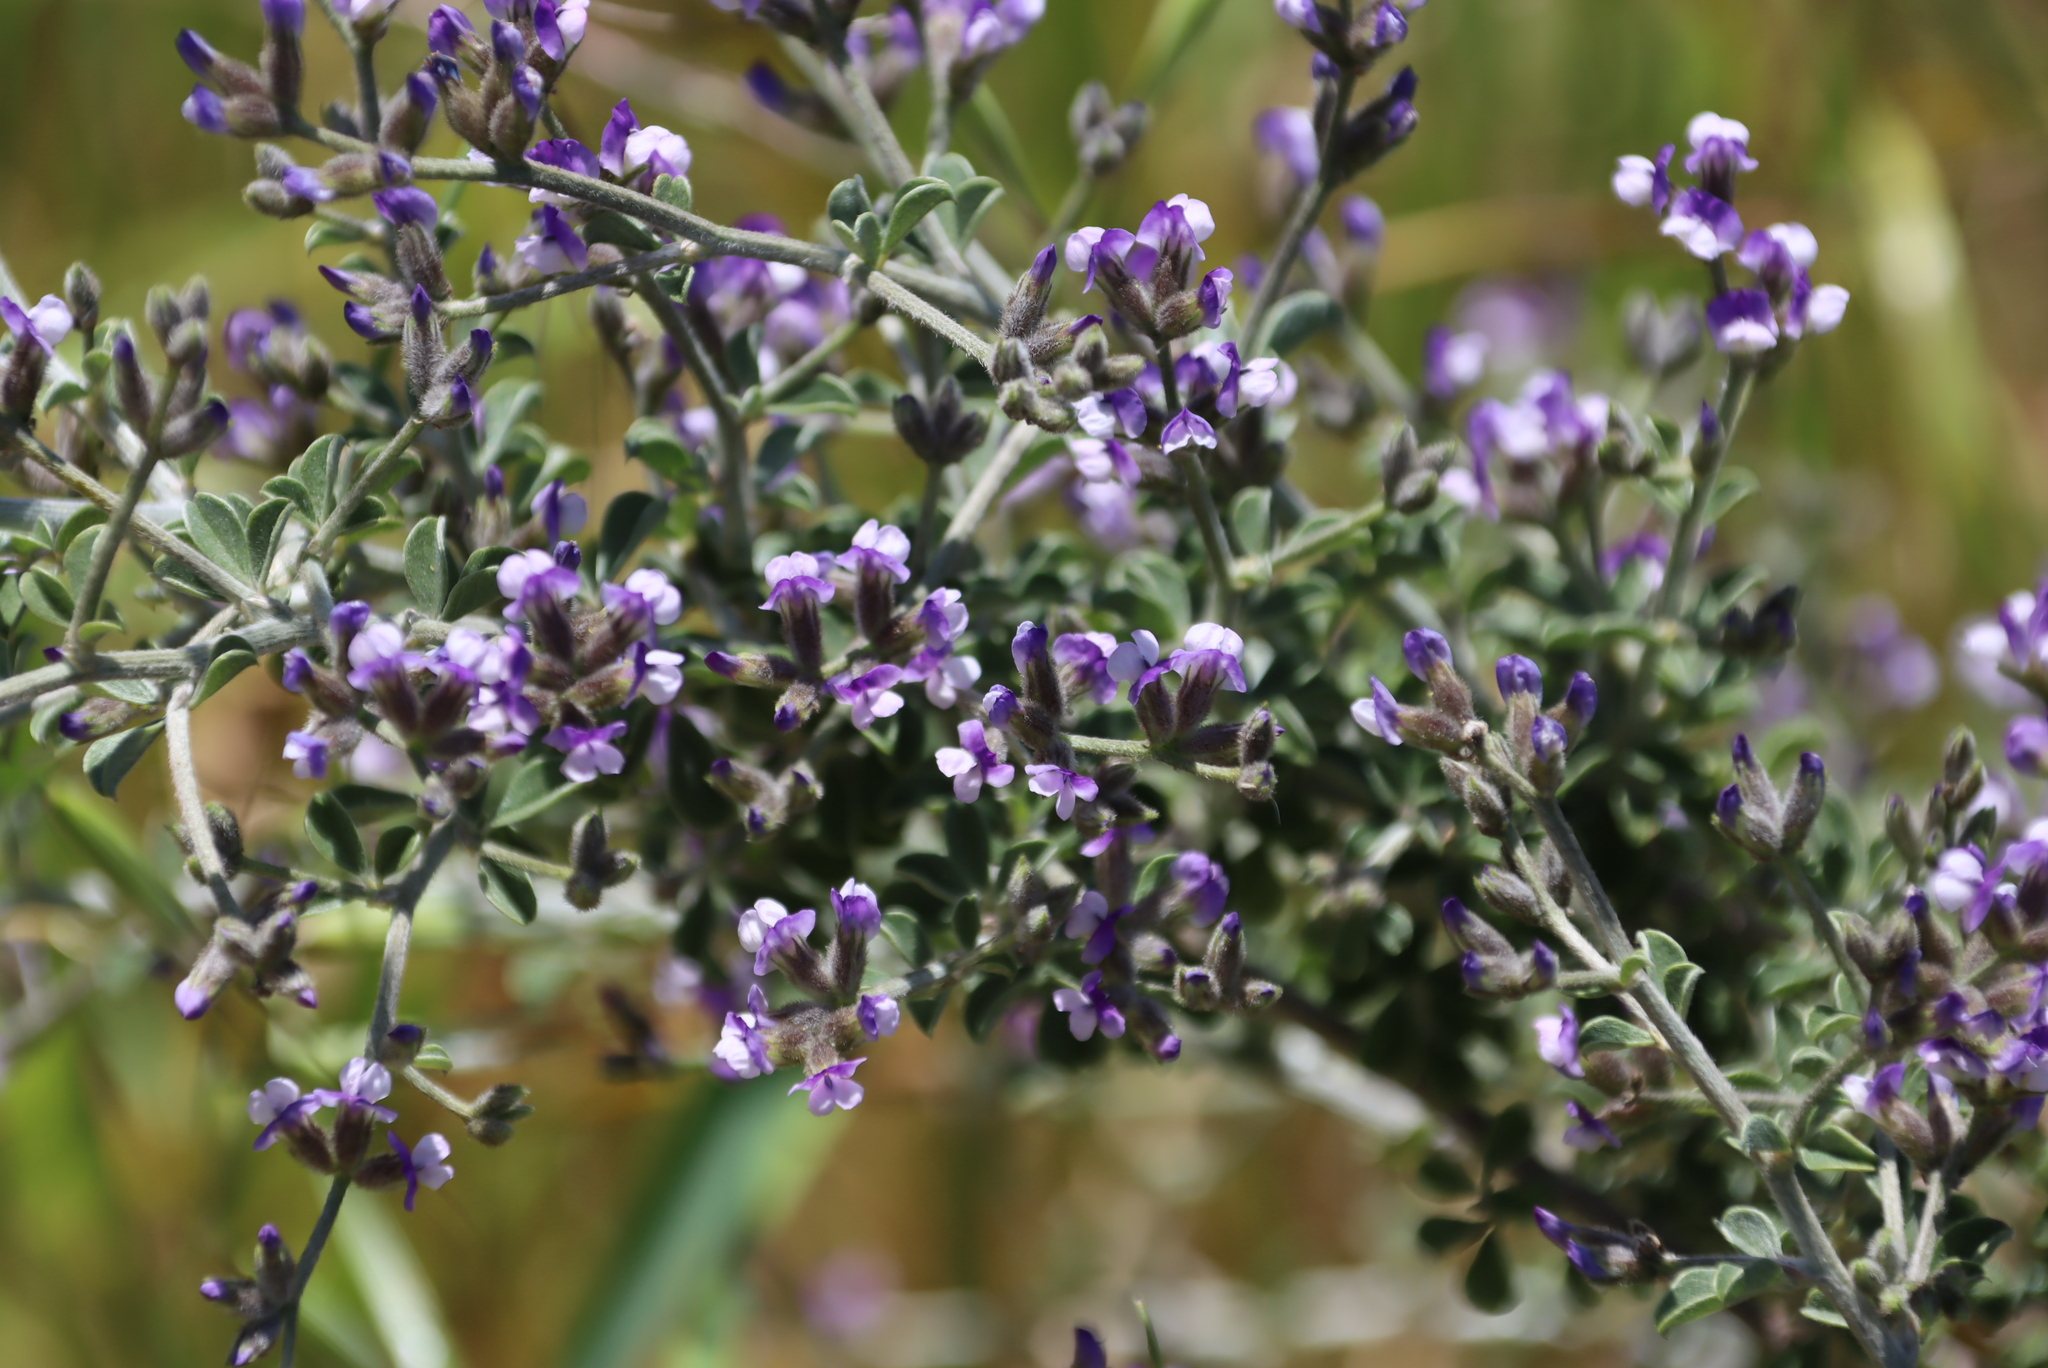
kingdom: Plantae
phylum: Tracheophyta
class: Magnoliopsida
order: Fabales
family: Fabaceae
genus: Psoralea
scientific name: Psoralea hirta
